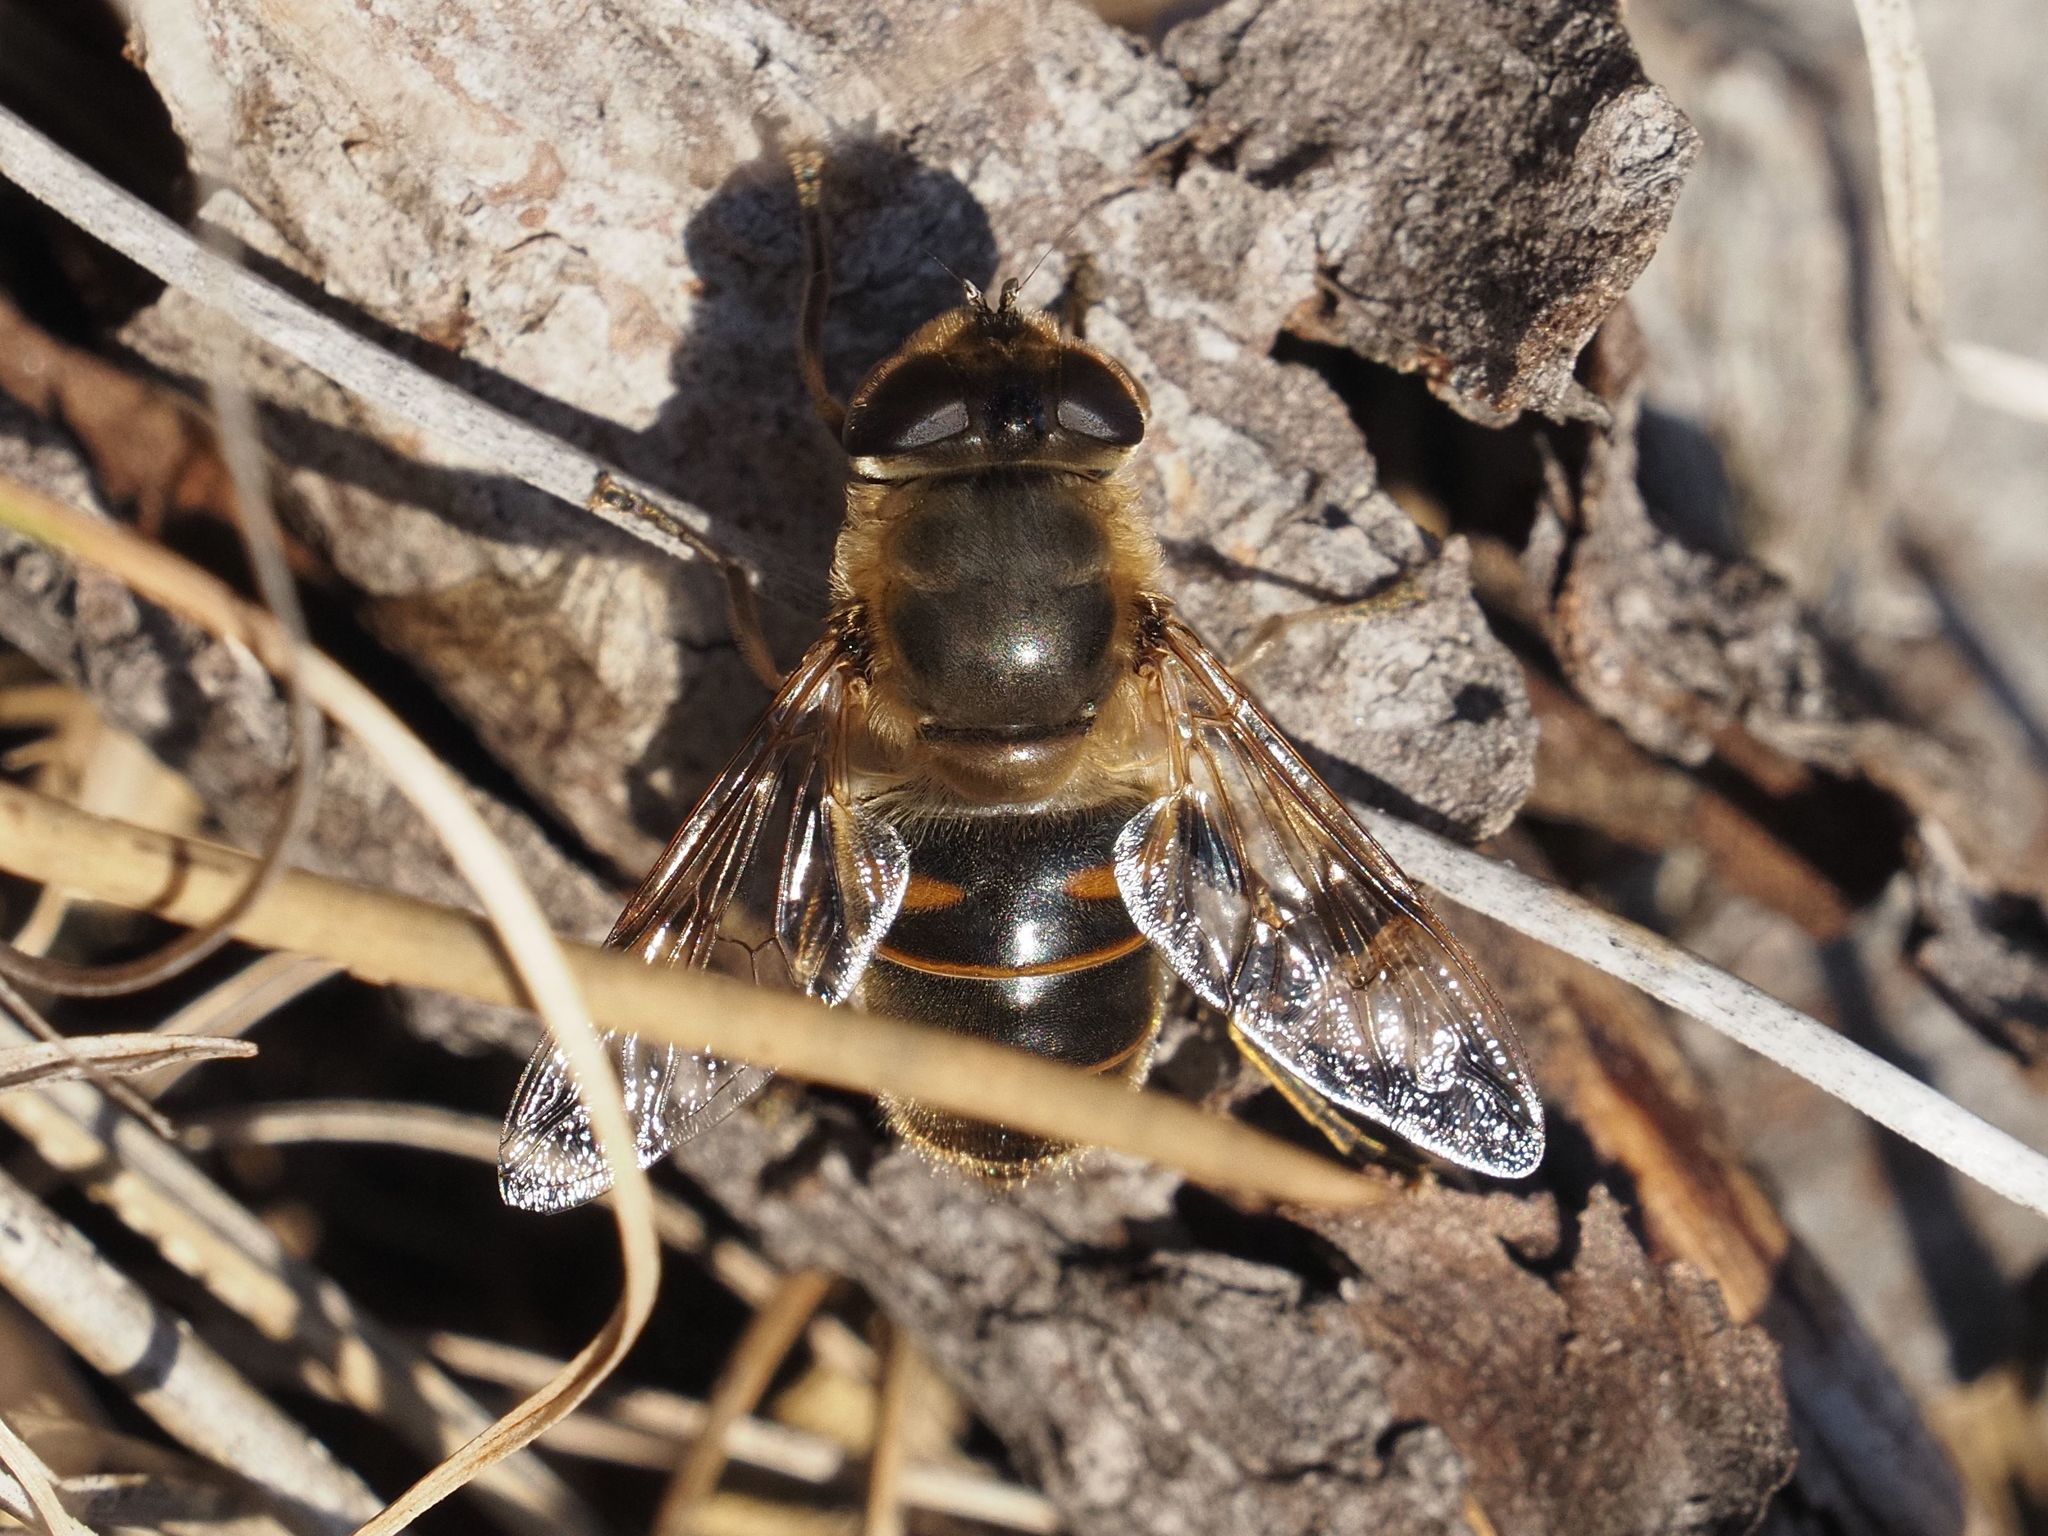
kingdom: Animalia
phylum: Arthropoda
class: Insecta
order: Diptera
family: Syrphidae
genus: Eristalis
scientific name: Eristalis tenax
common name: Drone fly
